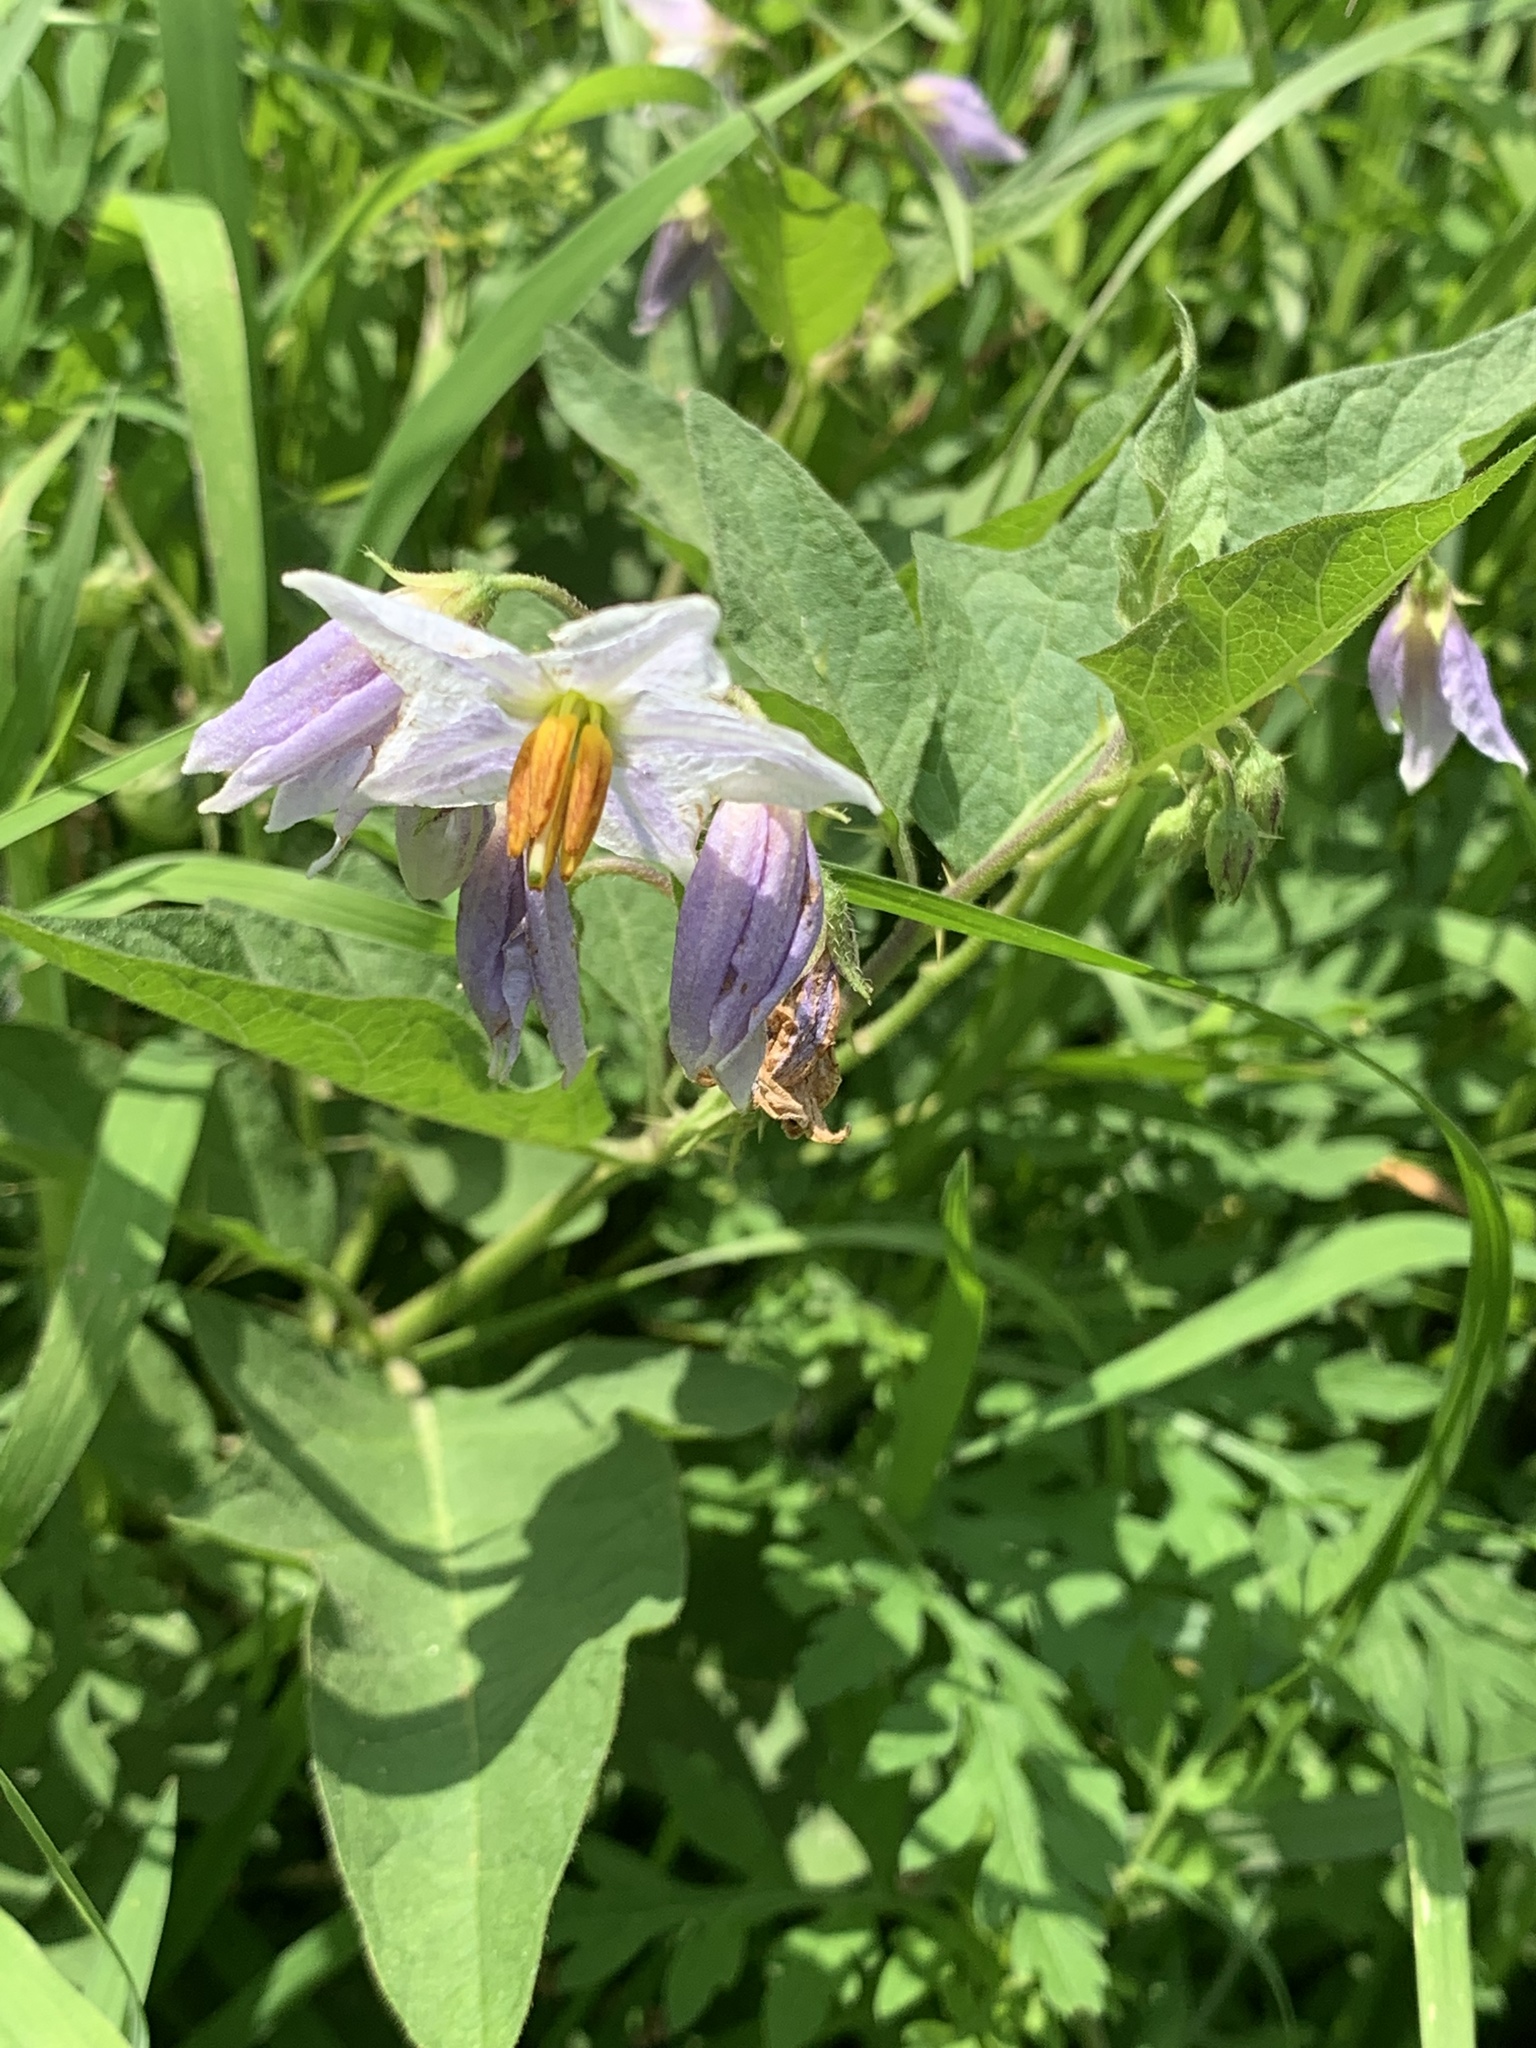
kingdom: Plantae
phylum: Tracheophyta
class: Magnoliopsida
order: Solanales
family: Solanaceae
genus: Solanum
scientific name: Solanum carolinense
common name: Horse-nettle
